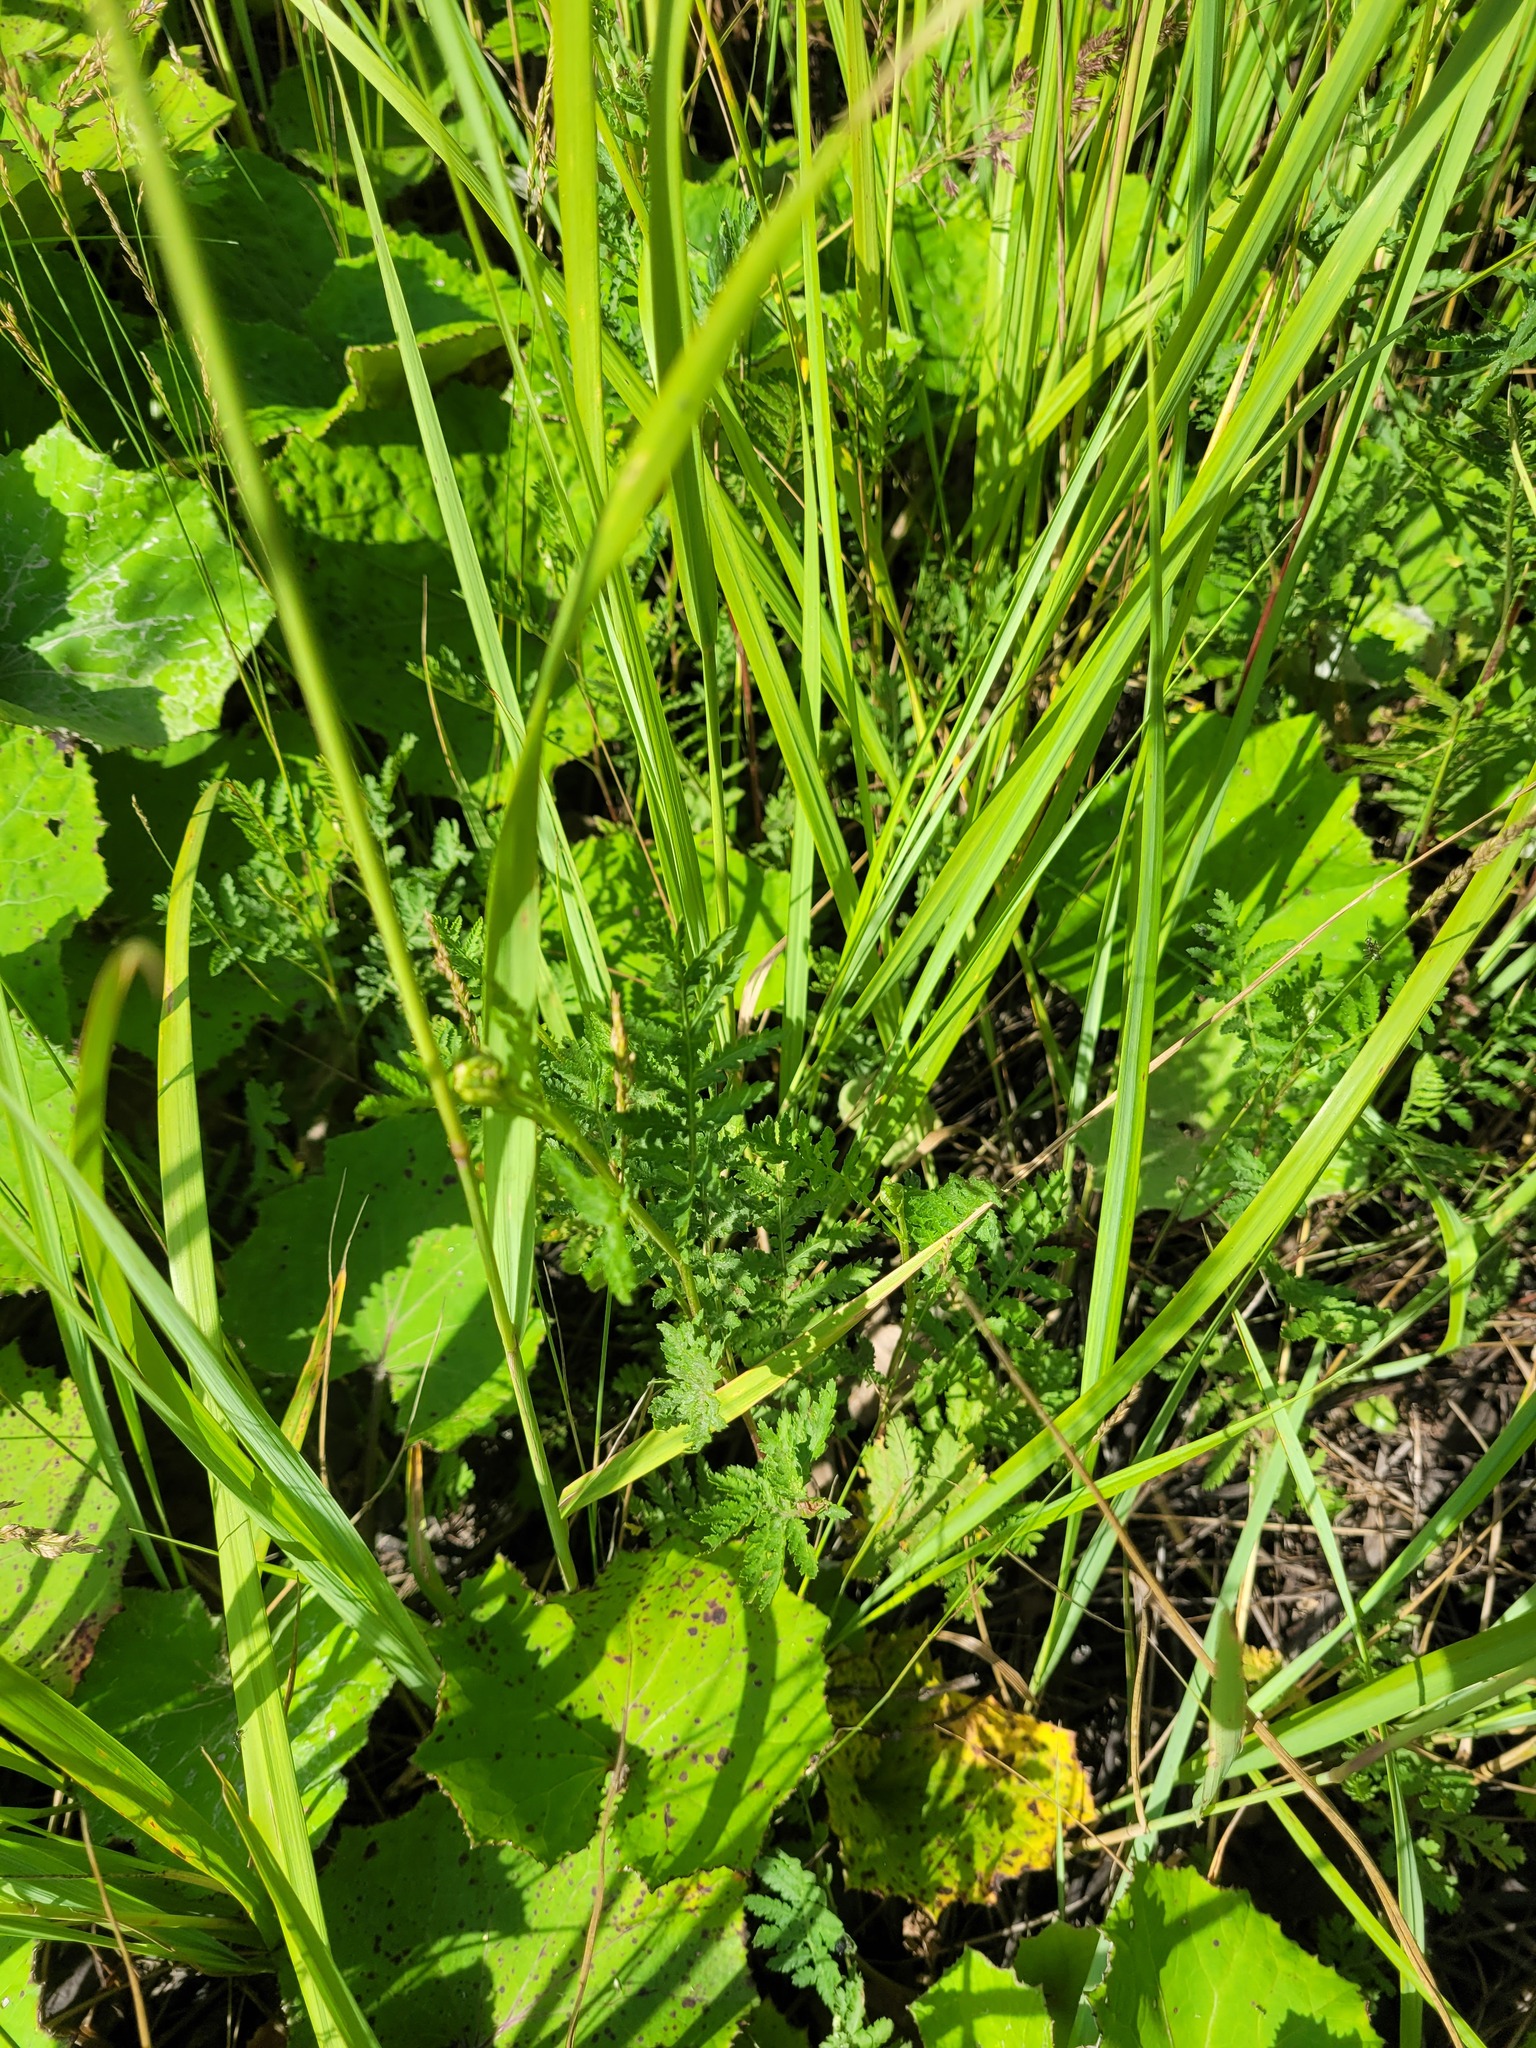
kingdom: Plantae
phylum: Tracheophyta
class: Magnoliopsida
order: Asterales
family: Asteraceae
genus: Tanacetum
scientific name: Tanacetum vulgare
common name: Common tansy
